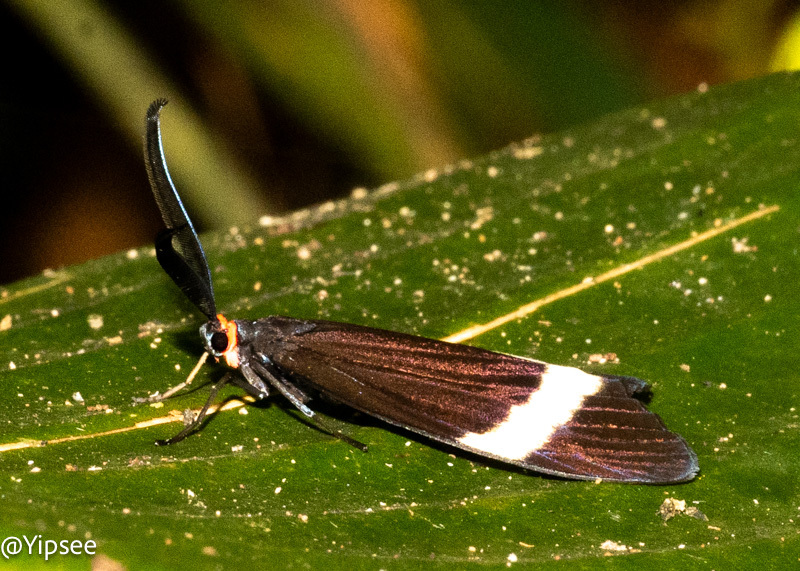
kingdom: Animalia
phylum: Arthropoda
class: Insecta
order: Lepidoptera
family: Zygaenidae
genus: Pidorus
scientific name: Pidorus glaucopis
